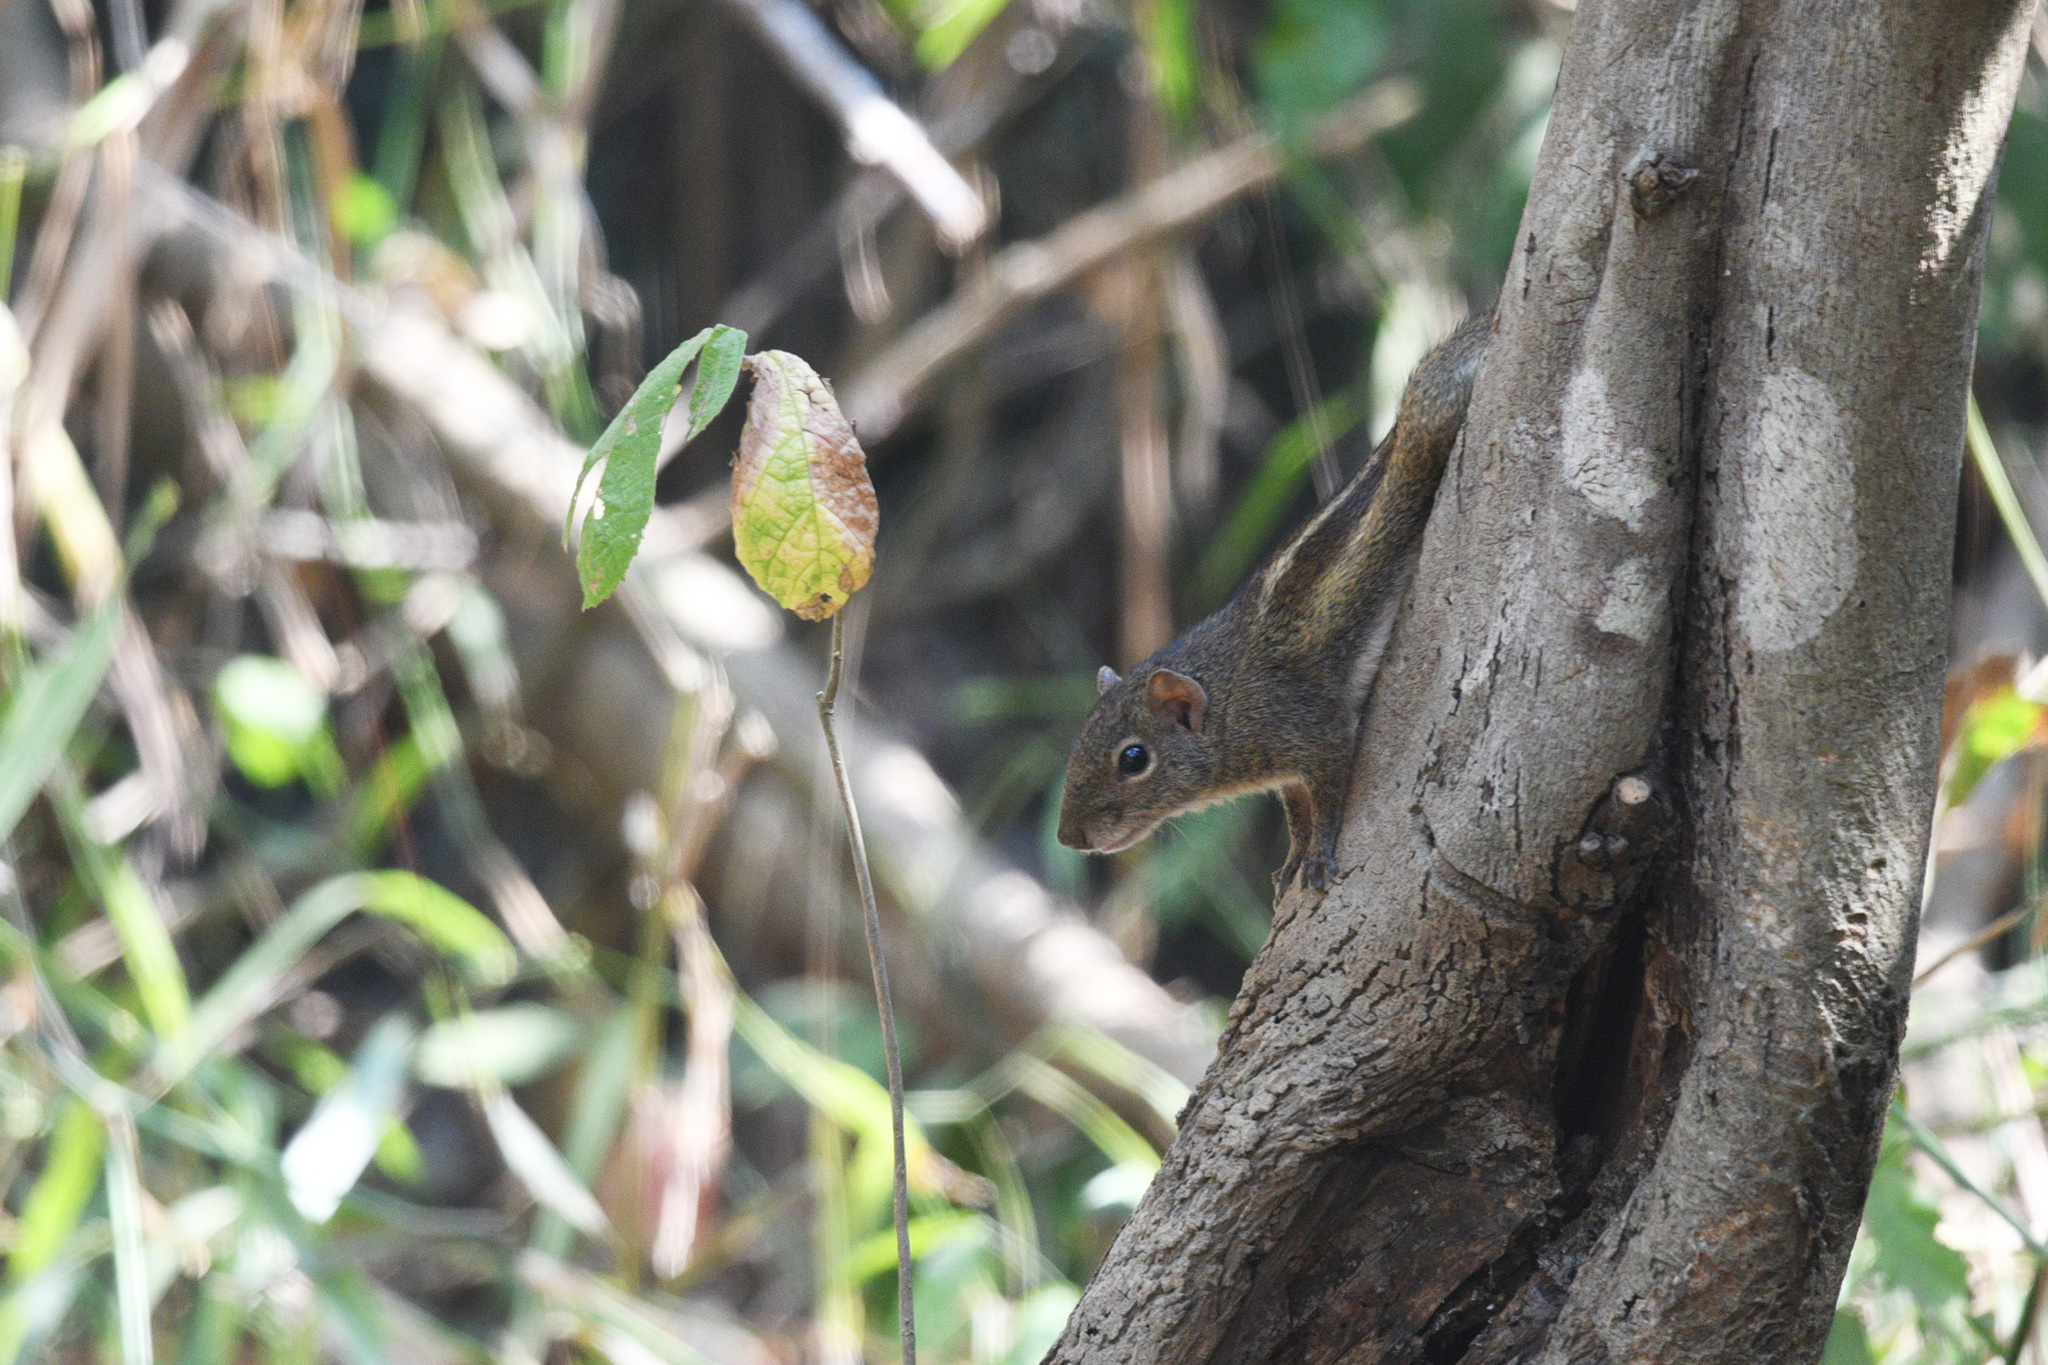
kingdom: Animalia
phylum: Chordata
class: Mammalia
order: Rodentia
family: Sciuridae
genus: Menetes
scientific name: Menetes berdmorei
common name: Indochinese ground squirrel
